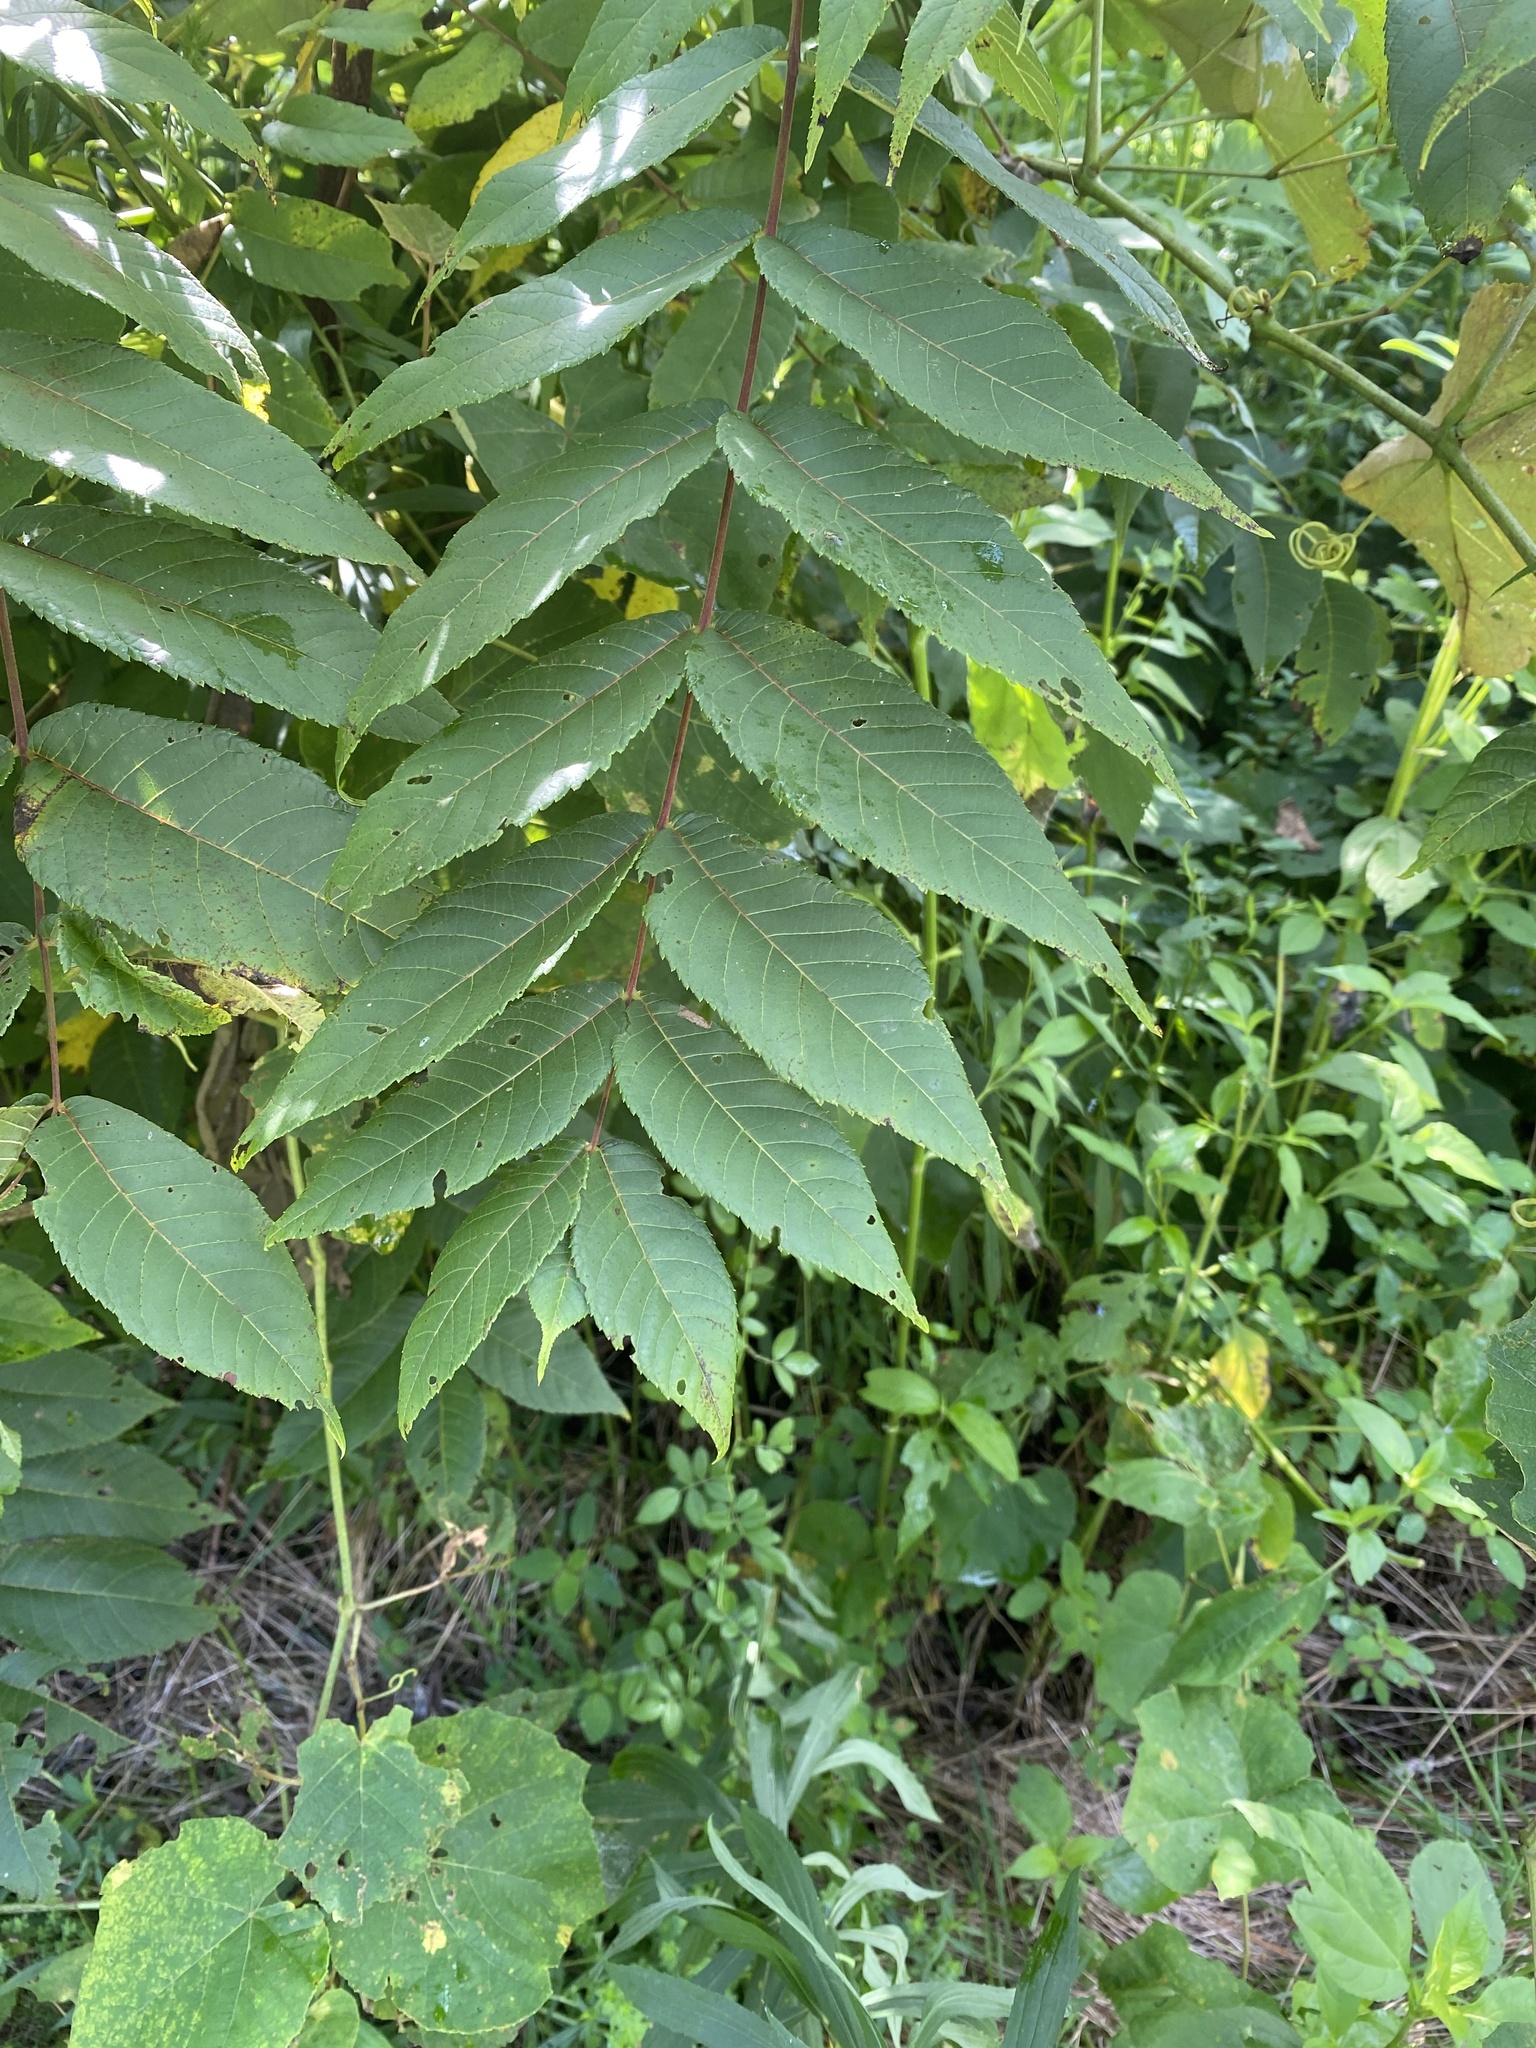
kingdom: Plantae
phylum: Tracheophyta
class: Magnoliopsida
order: Fagales
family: Juglandaceae
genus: Juglans
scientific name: Juglans nigra
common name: Black walnut
